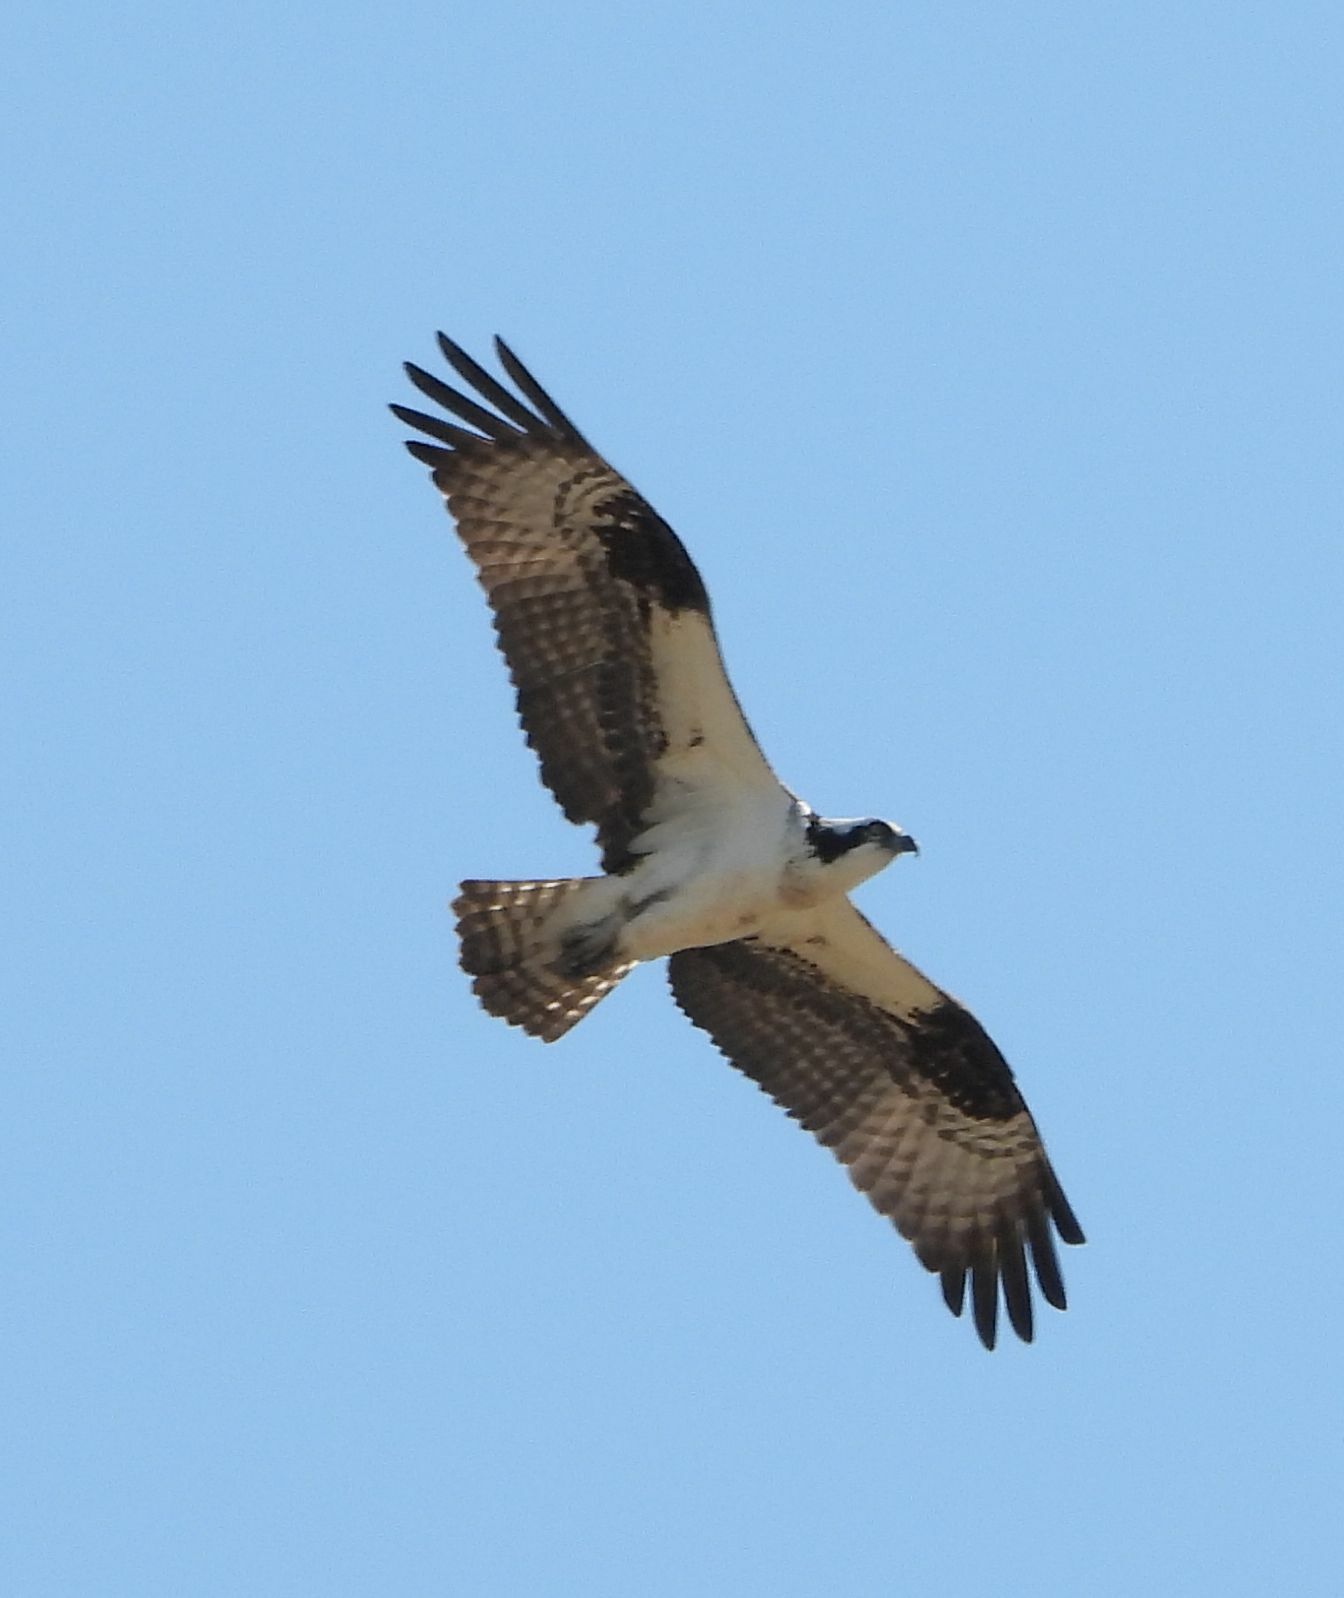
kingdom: Animalia
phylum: Chordata
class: Aves
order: Accipitriformes
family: Pandionidae
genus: Pandion
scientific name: Pandion haliaetus
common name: Osprey
